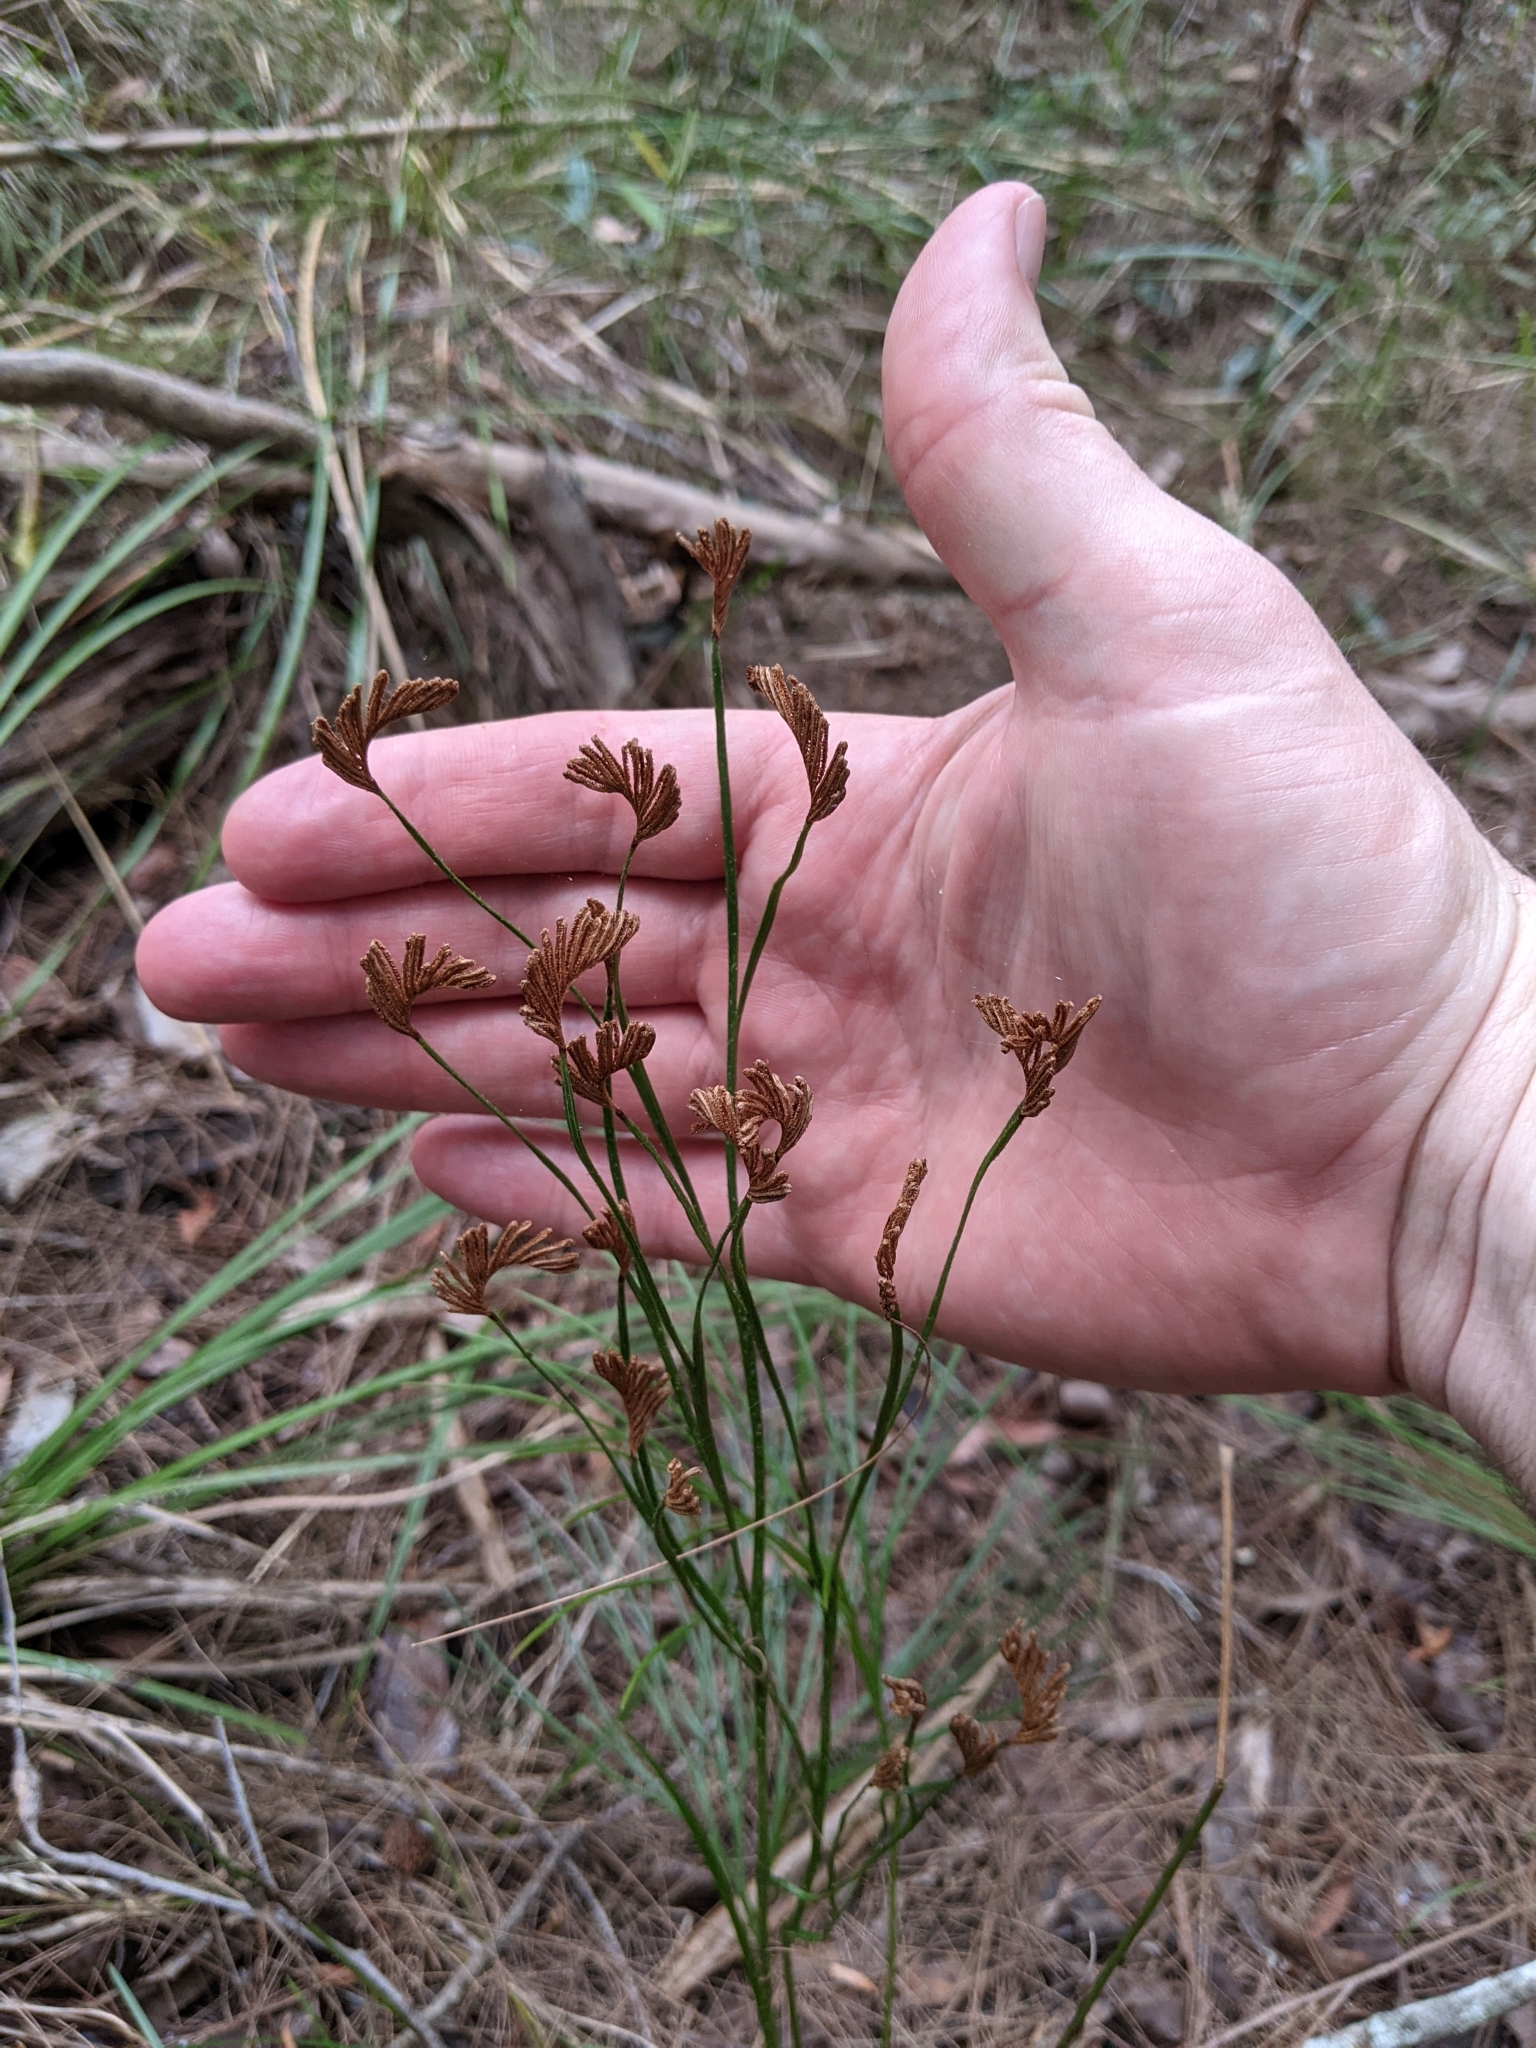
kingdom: Plantae
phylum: Tracheophyta
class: Polypodiopsida
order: Schizaeales
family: Schizaeaceae
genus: Schizaea
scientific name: Schizaea bifida
